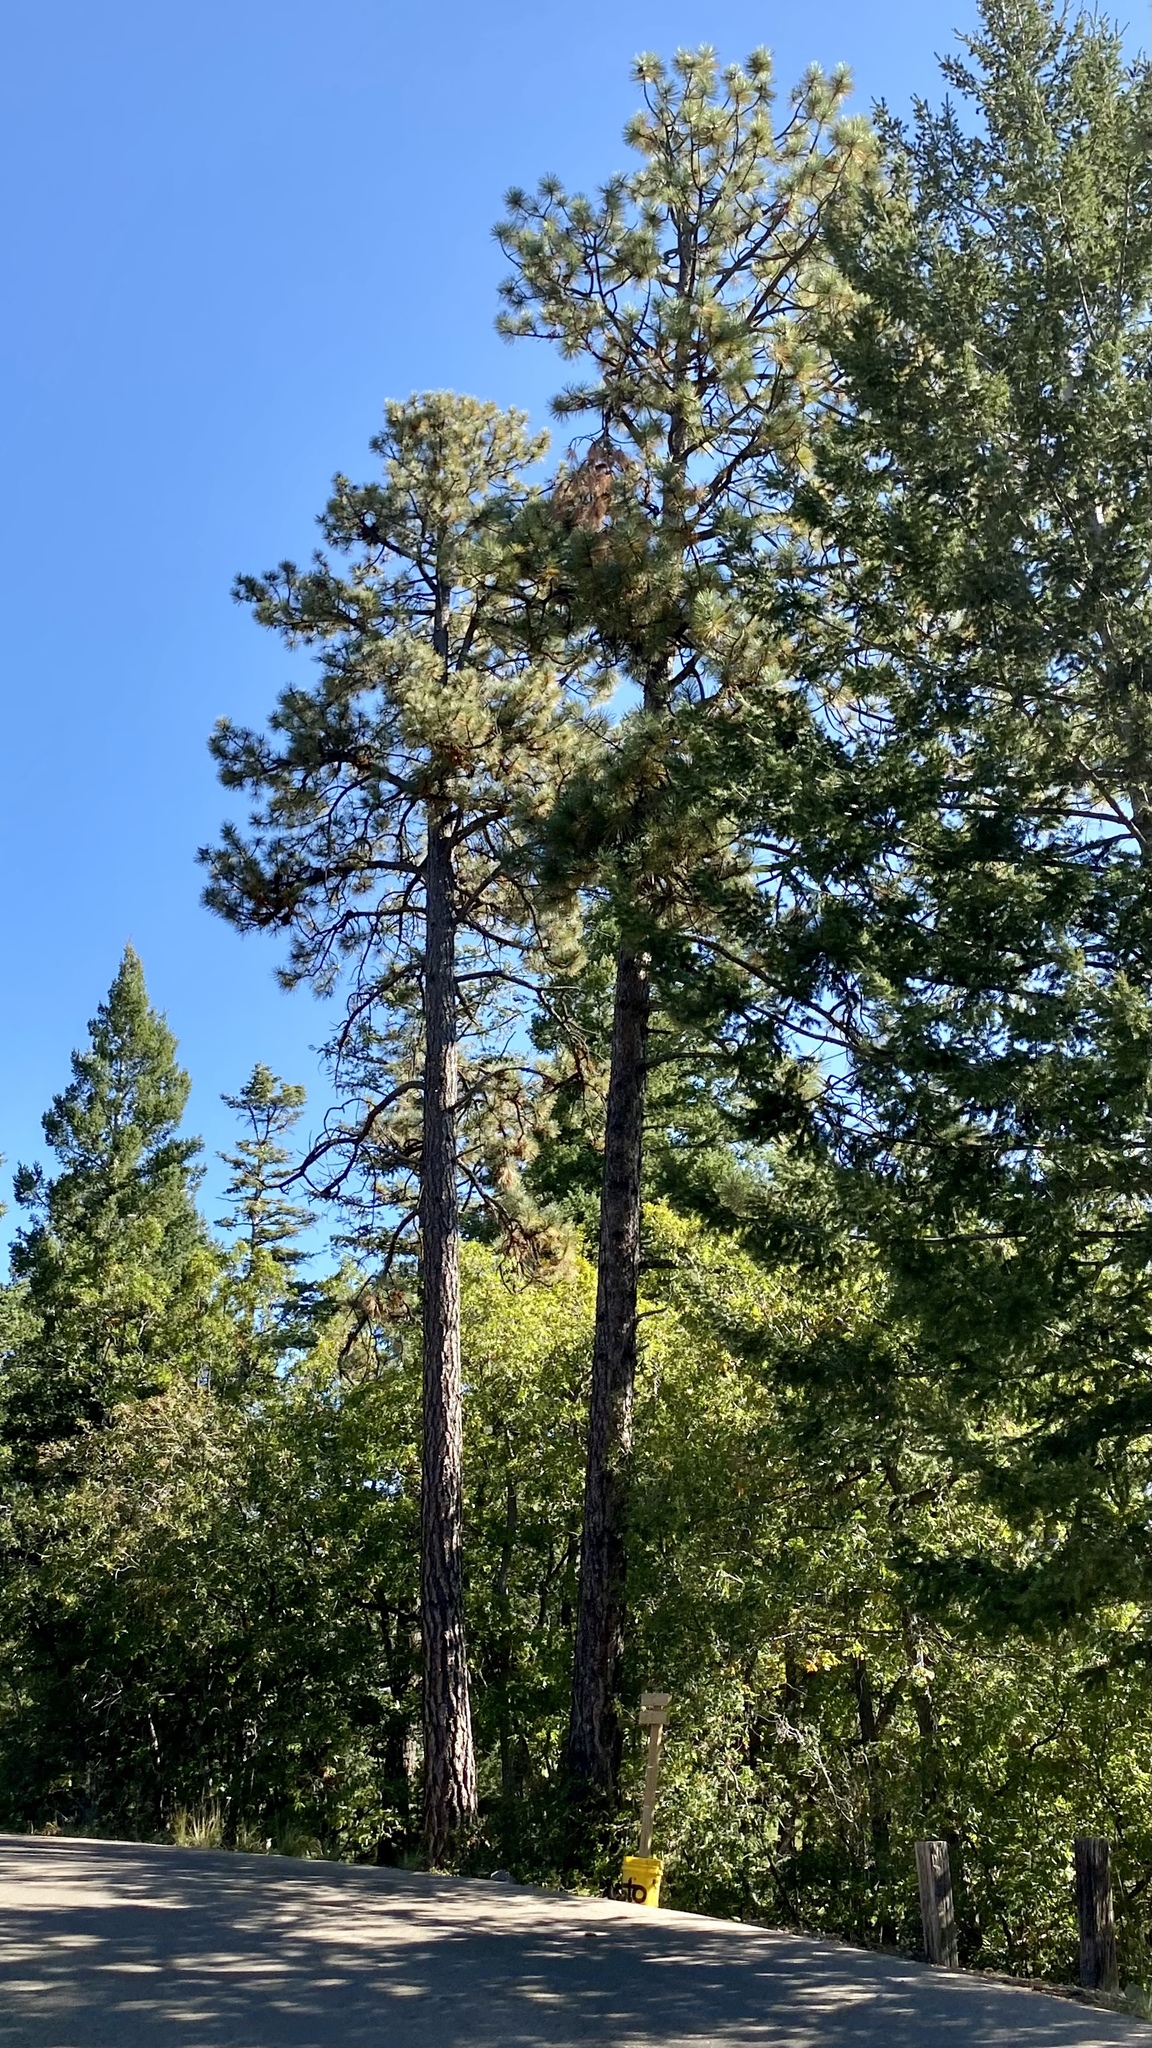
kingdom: Plantae
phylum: Tracheophyta
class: Pinopsida
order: Pinales
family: Pinaceae
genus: Pinus
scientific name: Pinus ponderosa
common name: Western yellow-pine
